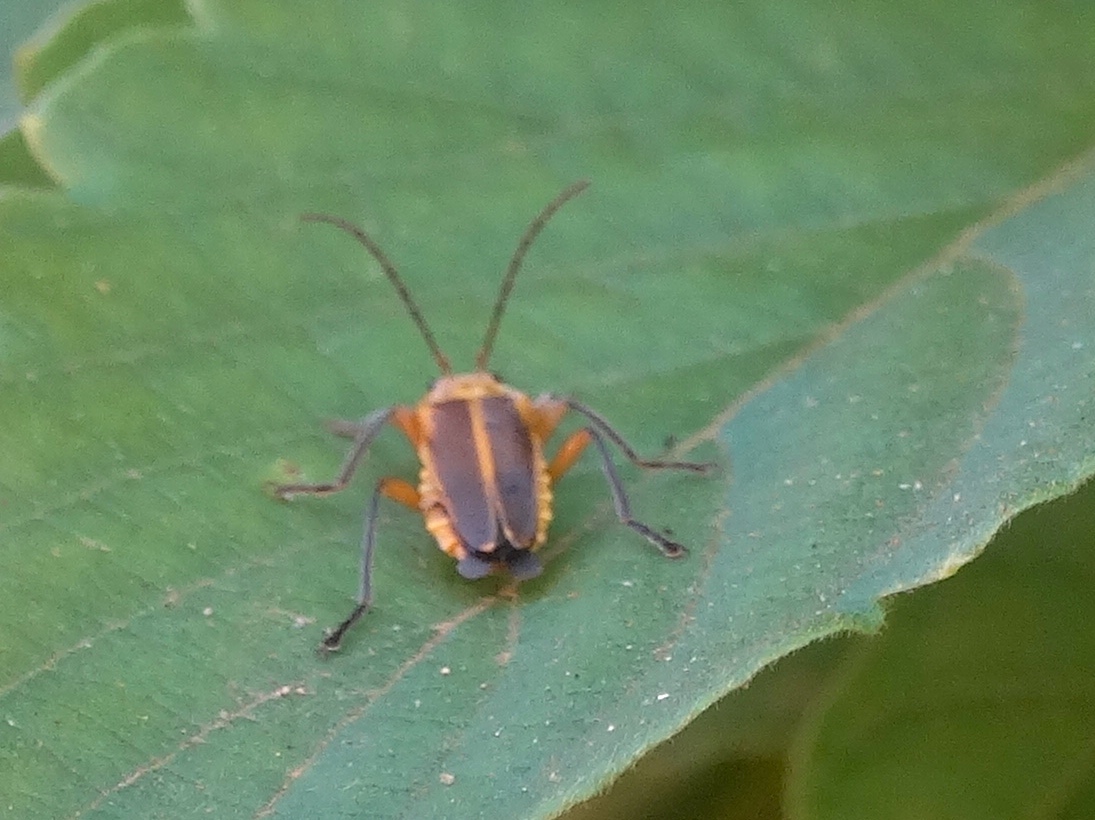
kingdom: Animalia
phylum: Arthropoda
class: Insecta
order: Coleoptera
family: Cantharidae
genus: Chauliognathus
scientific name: Chauliognathus
